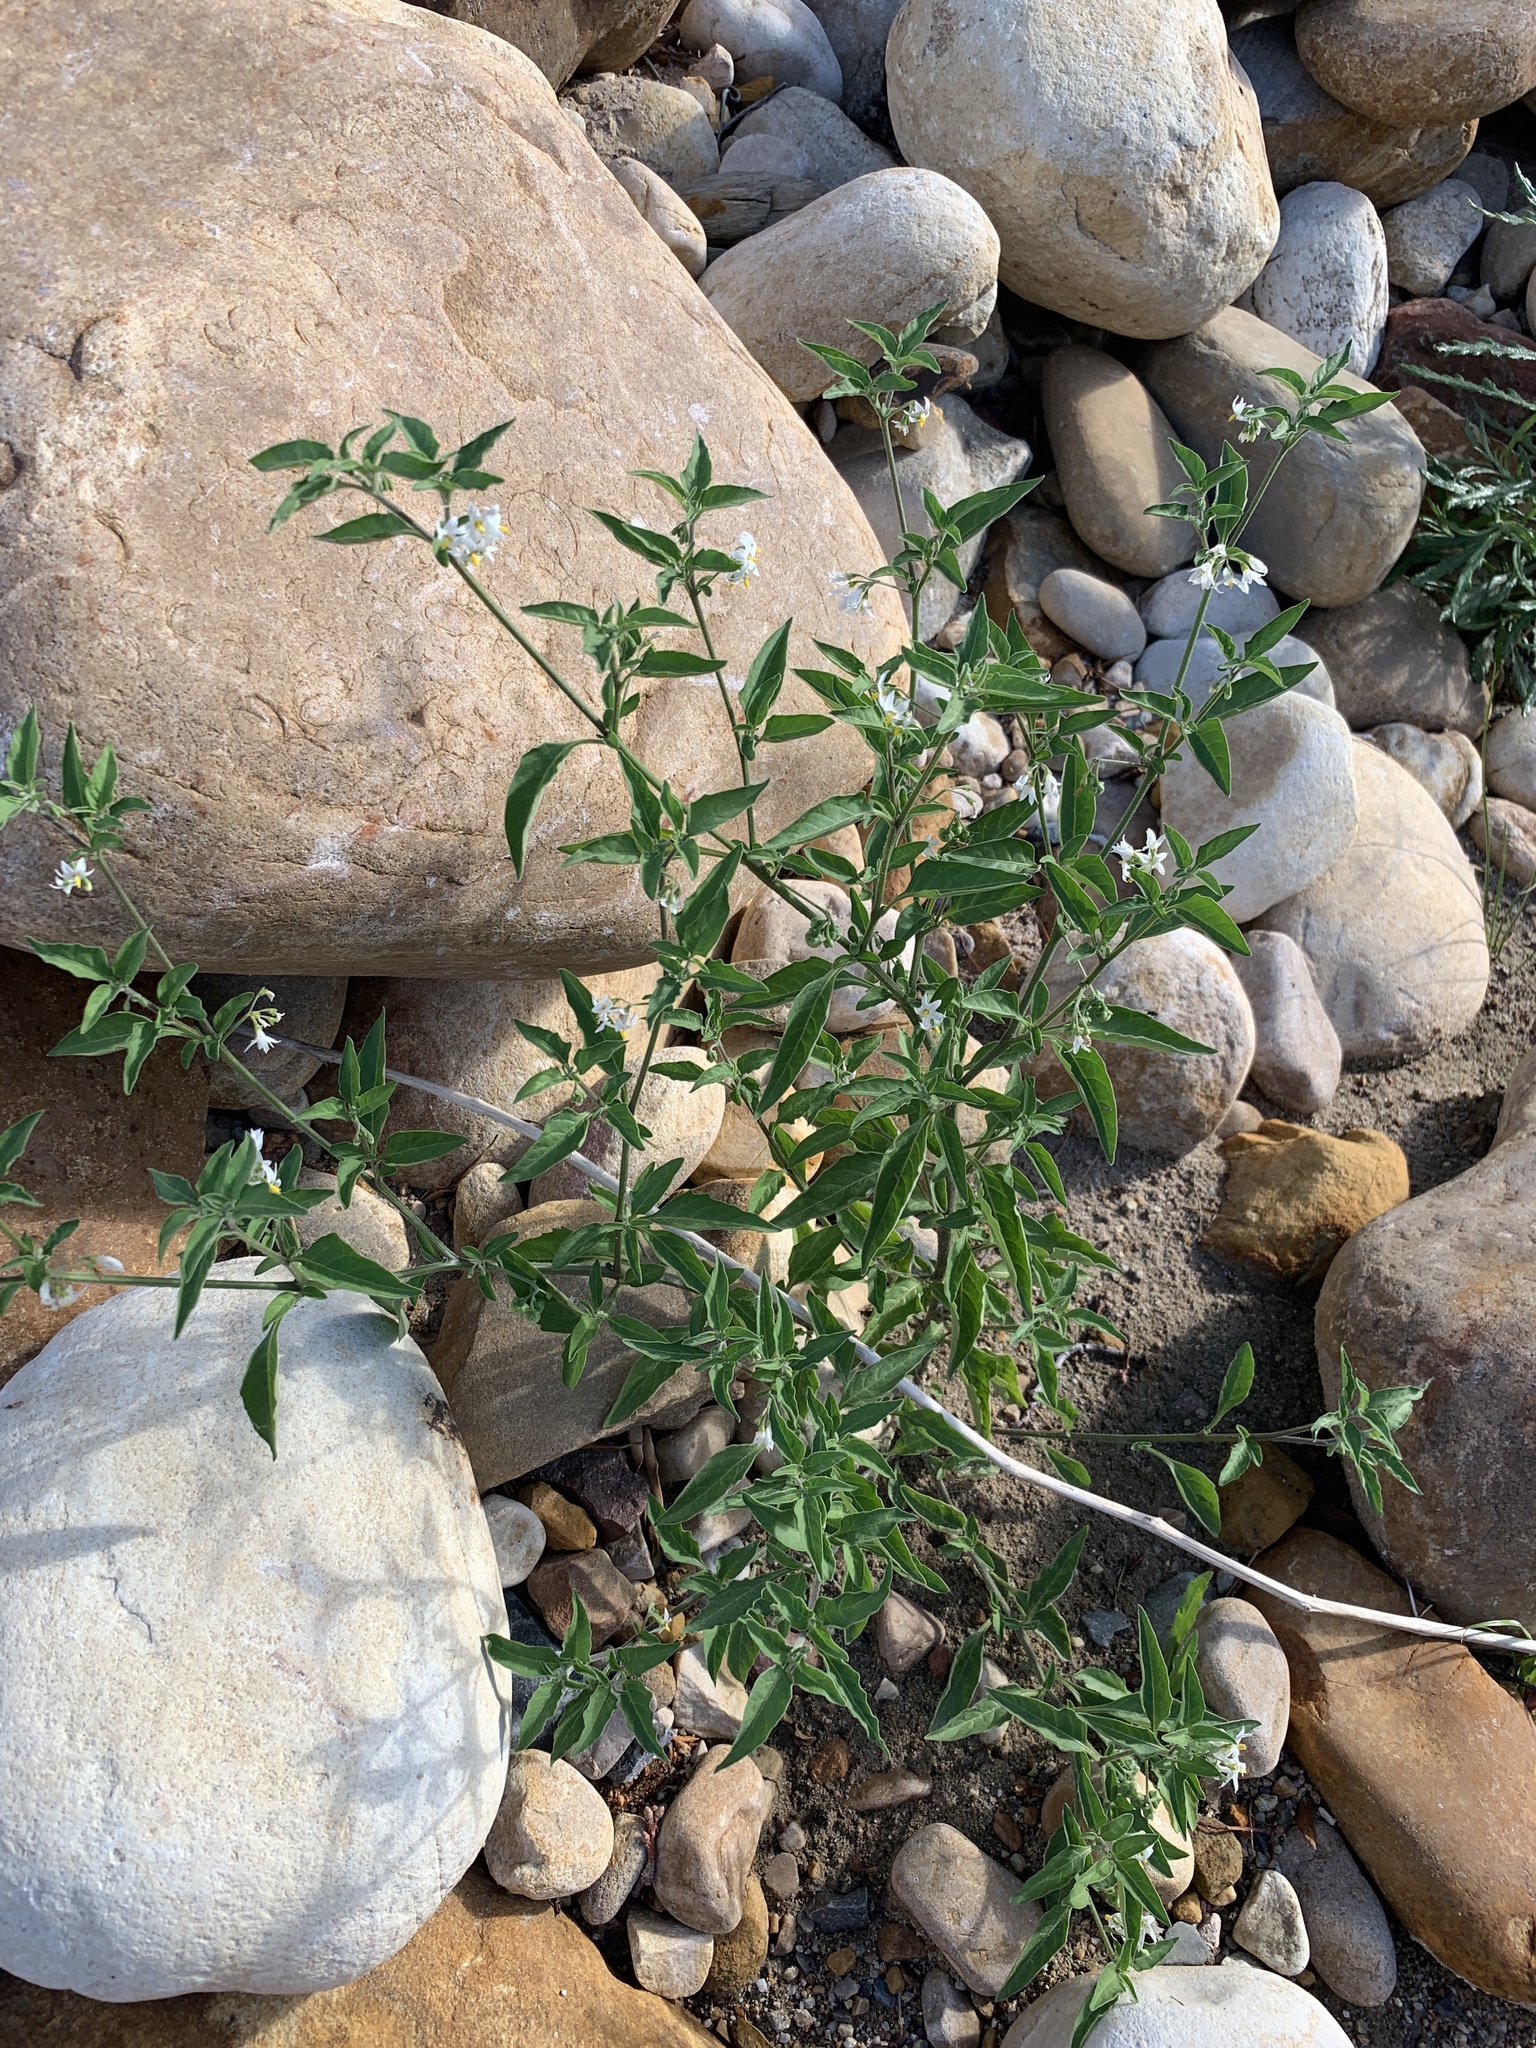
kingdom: Plantae
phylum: Tracheophyta
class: Magnoliopsida
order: Solanales
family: Solanaceae
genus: Solanum
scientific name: Solanum chenopodioides
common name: Tall nightshade
